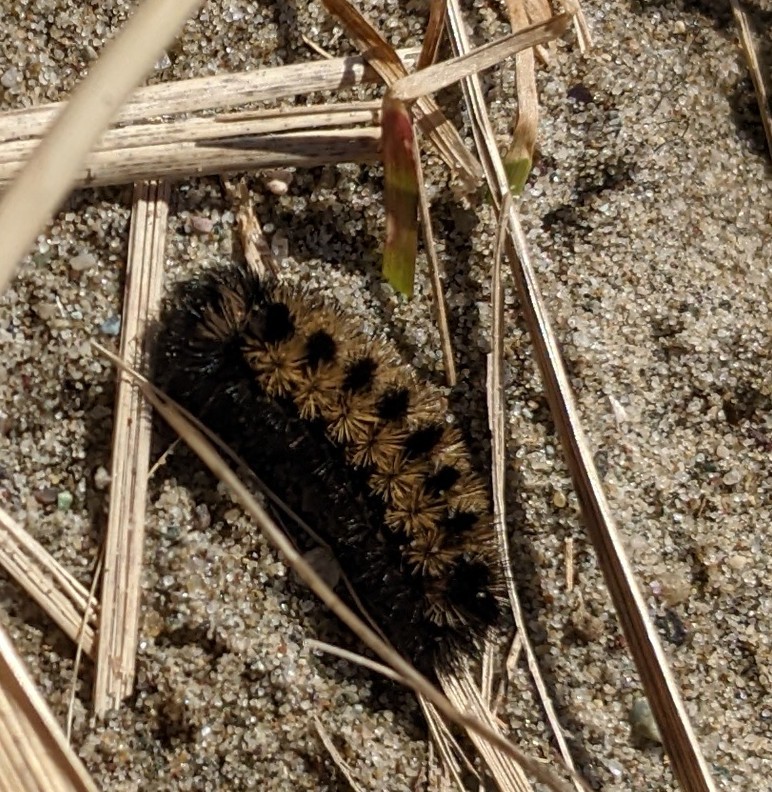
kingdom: Animalia
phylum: Arthropoda
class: Insecta
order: Lepidoptera
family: Erebidae
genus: Ctenucha
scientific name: Ctenucha virginica
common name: Virginia ctenucha moth
